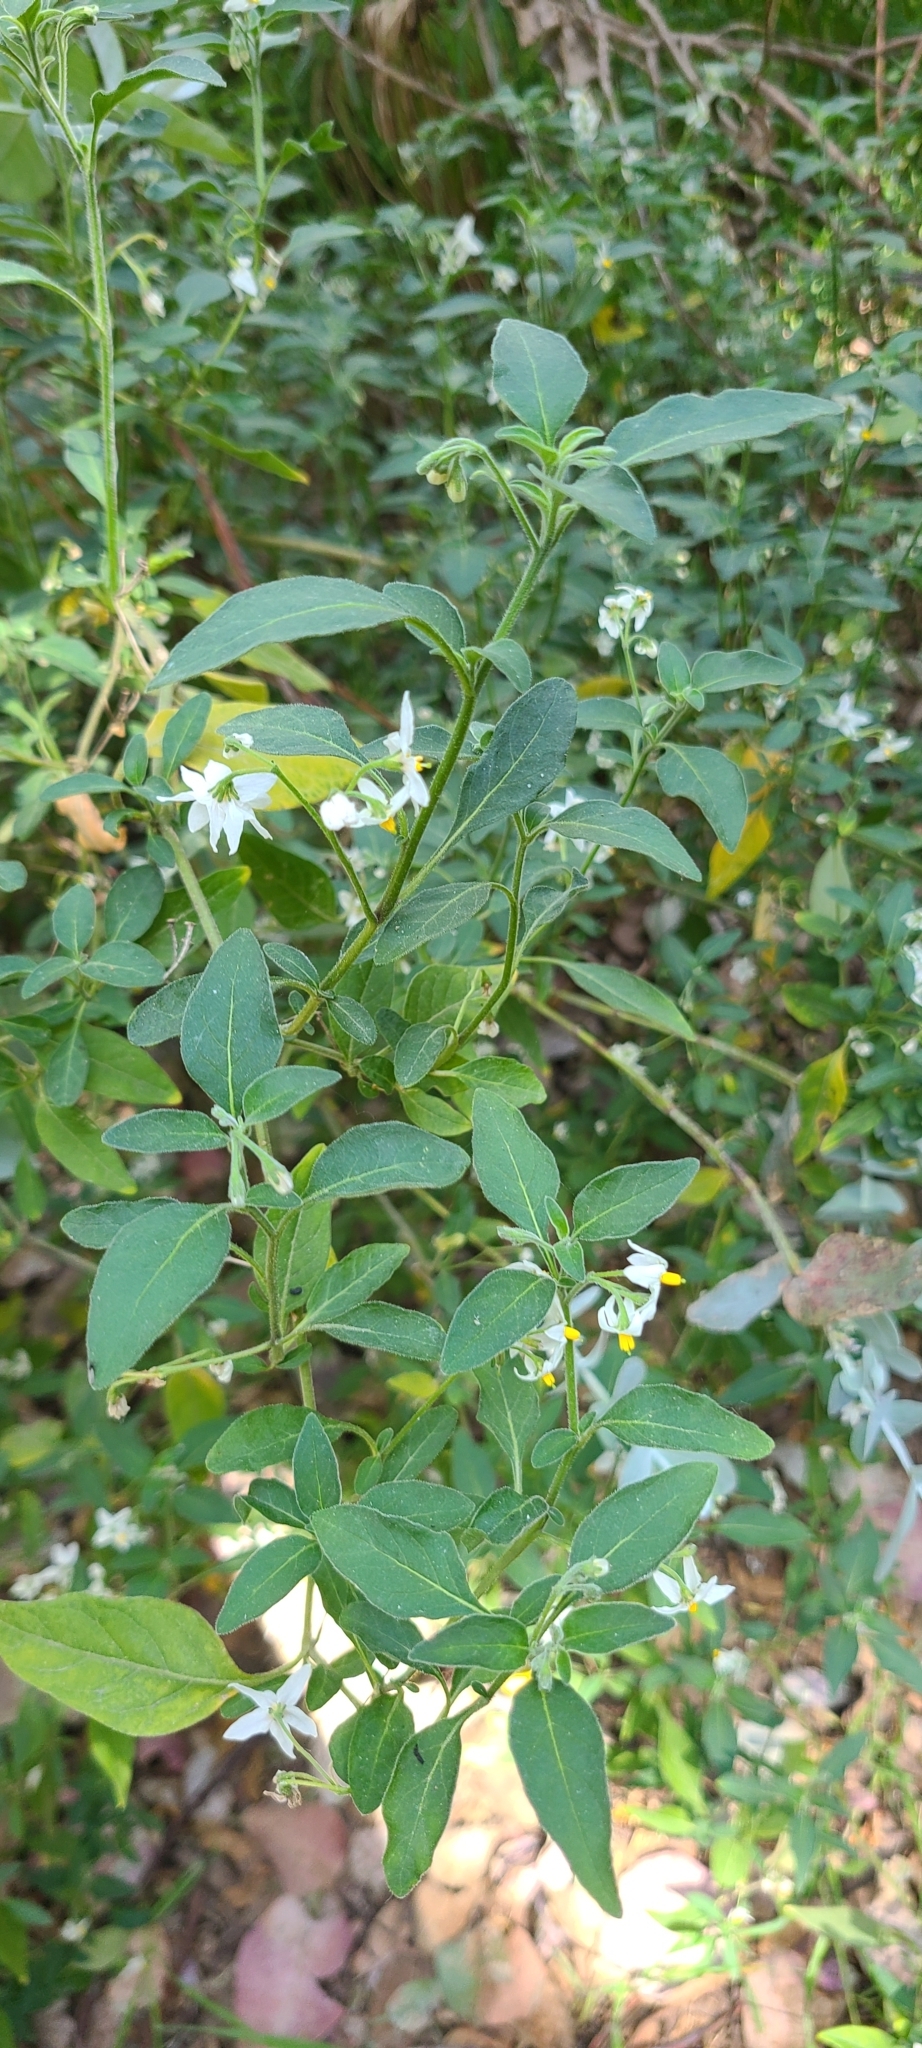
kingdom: Plantae
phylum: Tracheophyta
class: Magnoliopsida
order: Solanales
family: Solanaceae
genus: Solanum
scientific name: Solanum chenopodioides
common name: Tall nightshade
